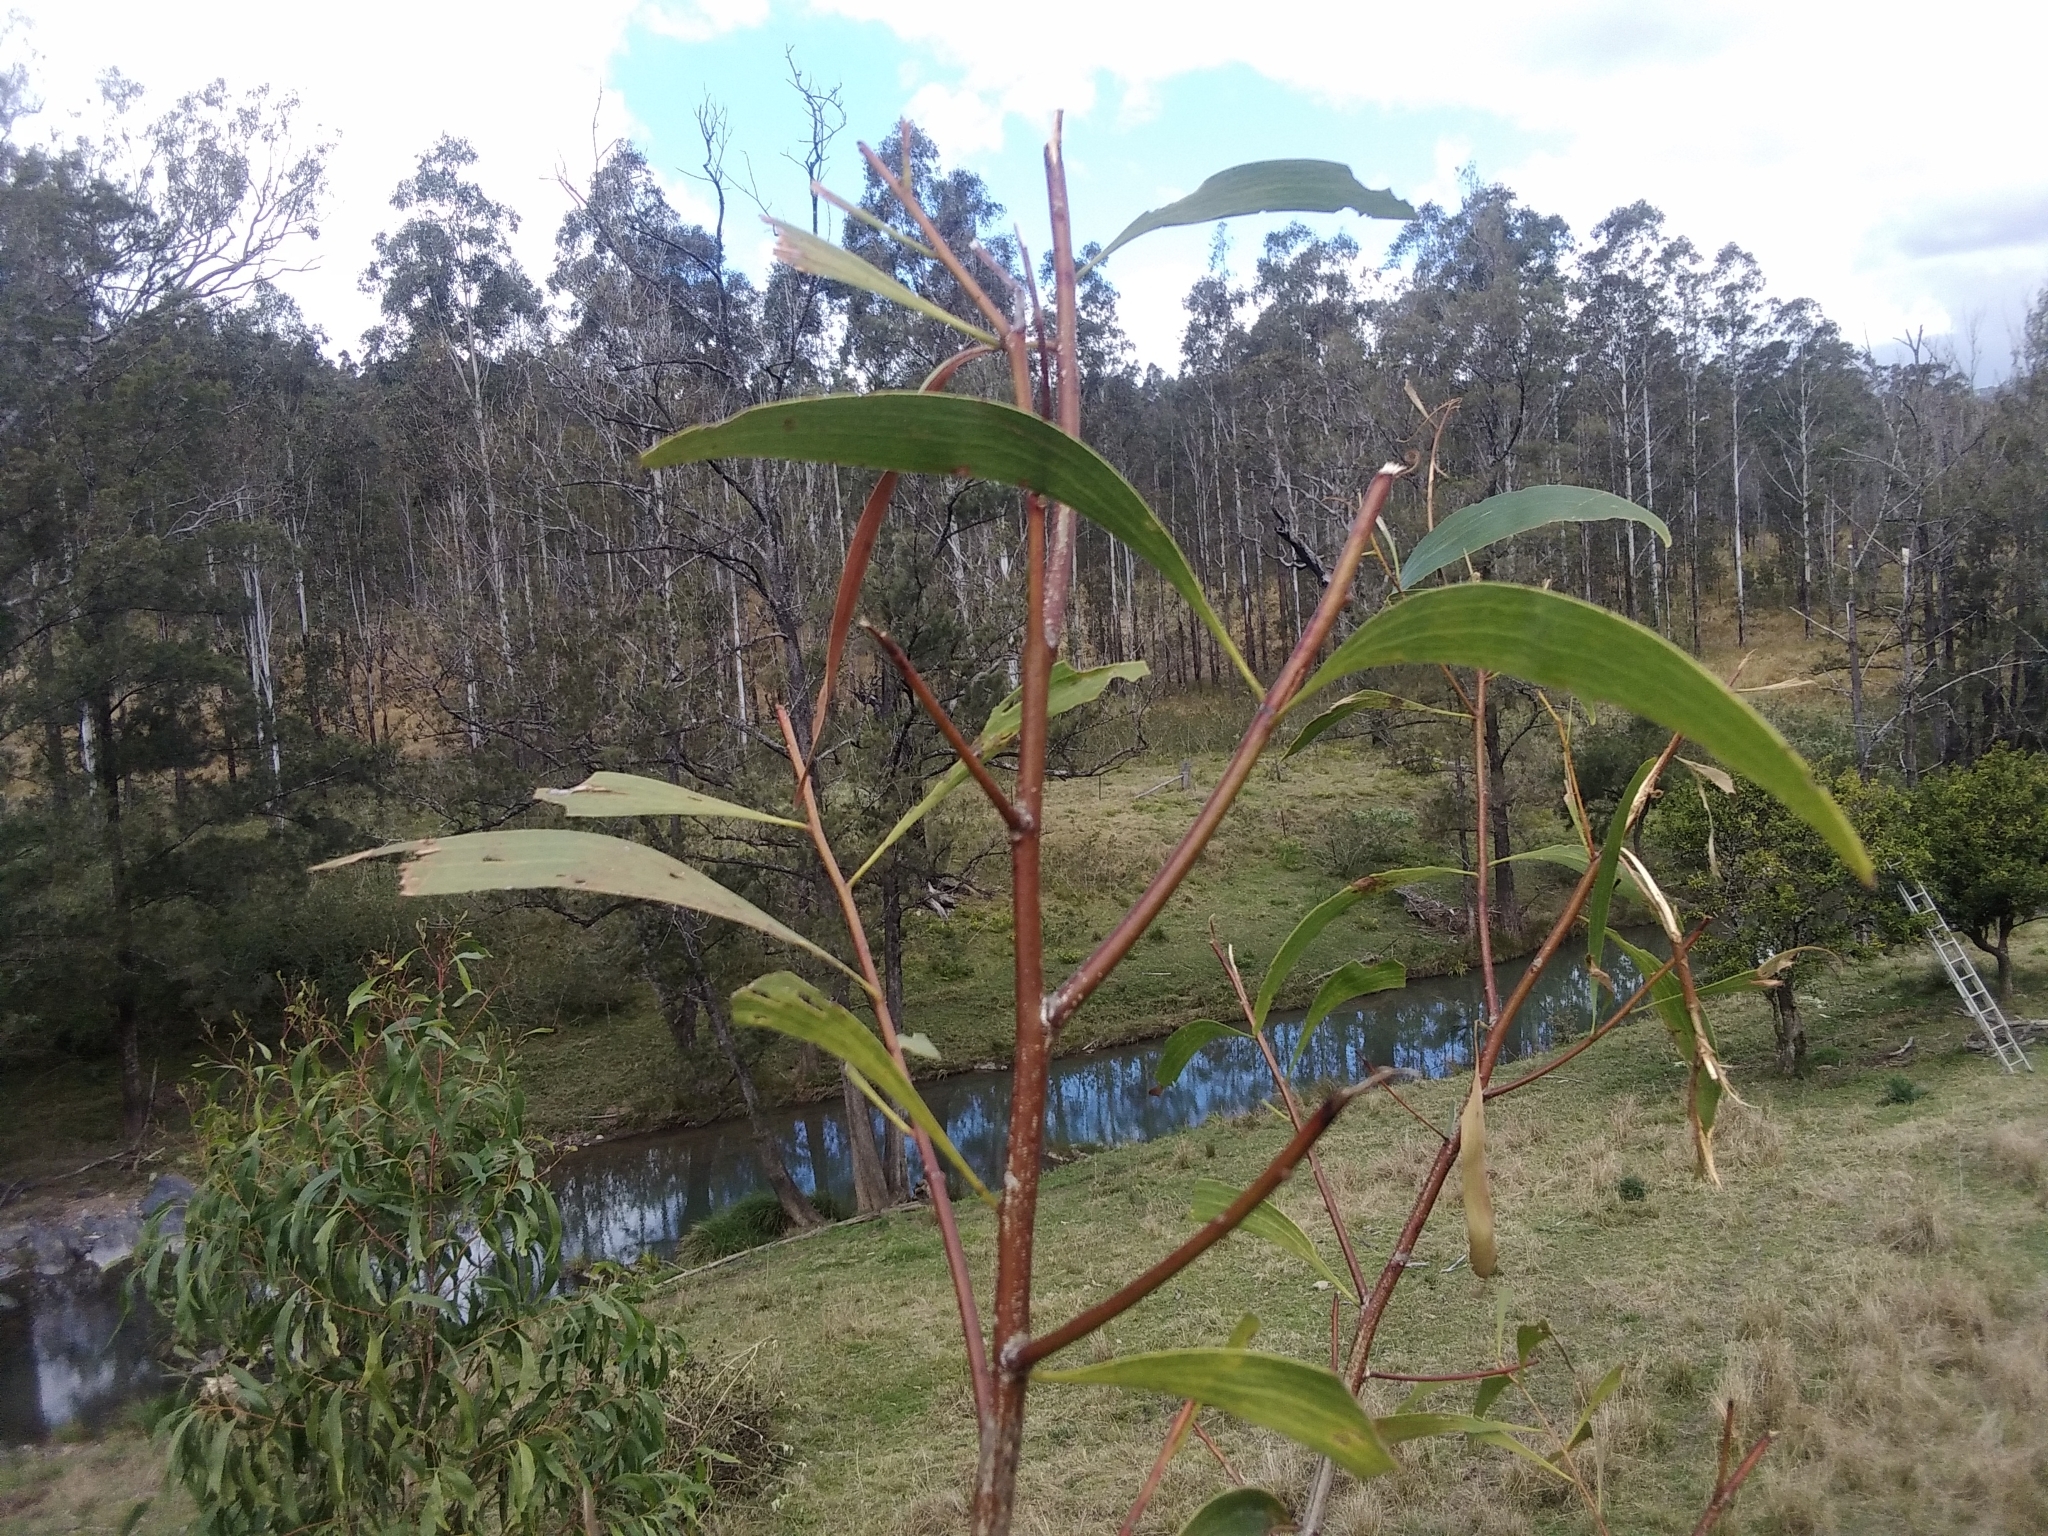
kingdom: Plantae
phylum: Tracheophyta
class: Magnoliopsida
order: Fabales
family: Fabaceae
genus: Acacia
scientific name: Acacia implexa
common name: Black wattle
